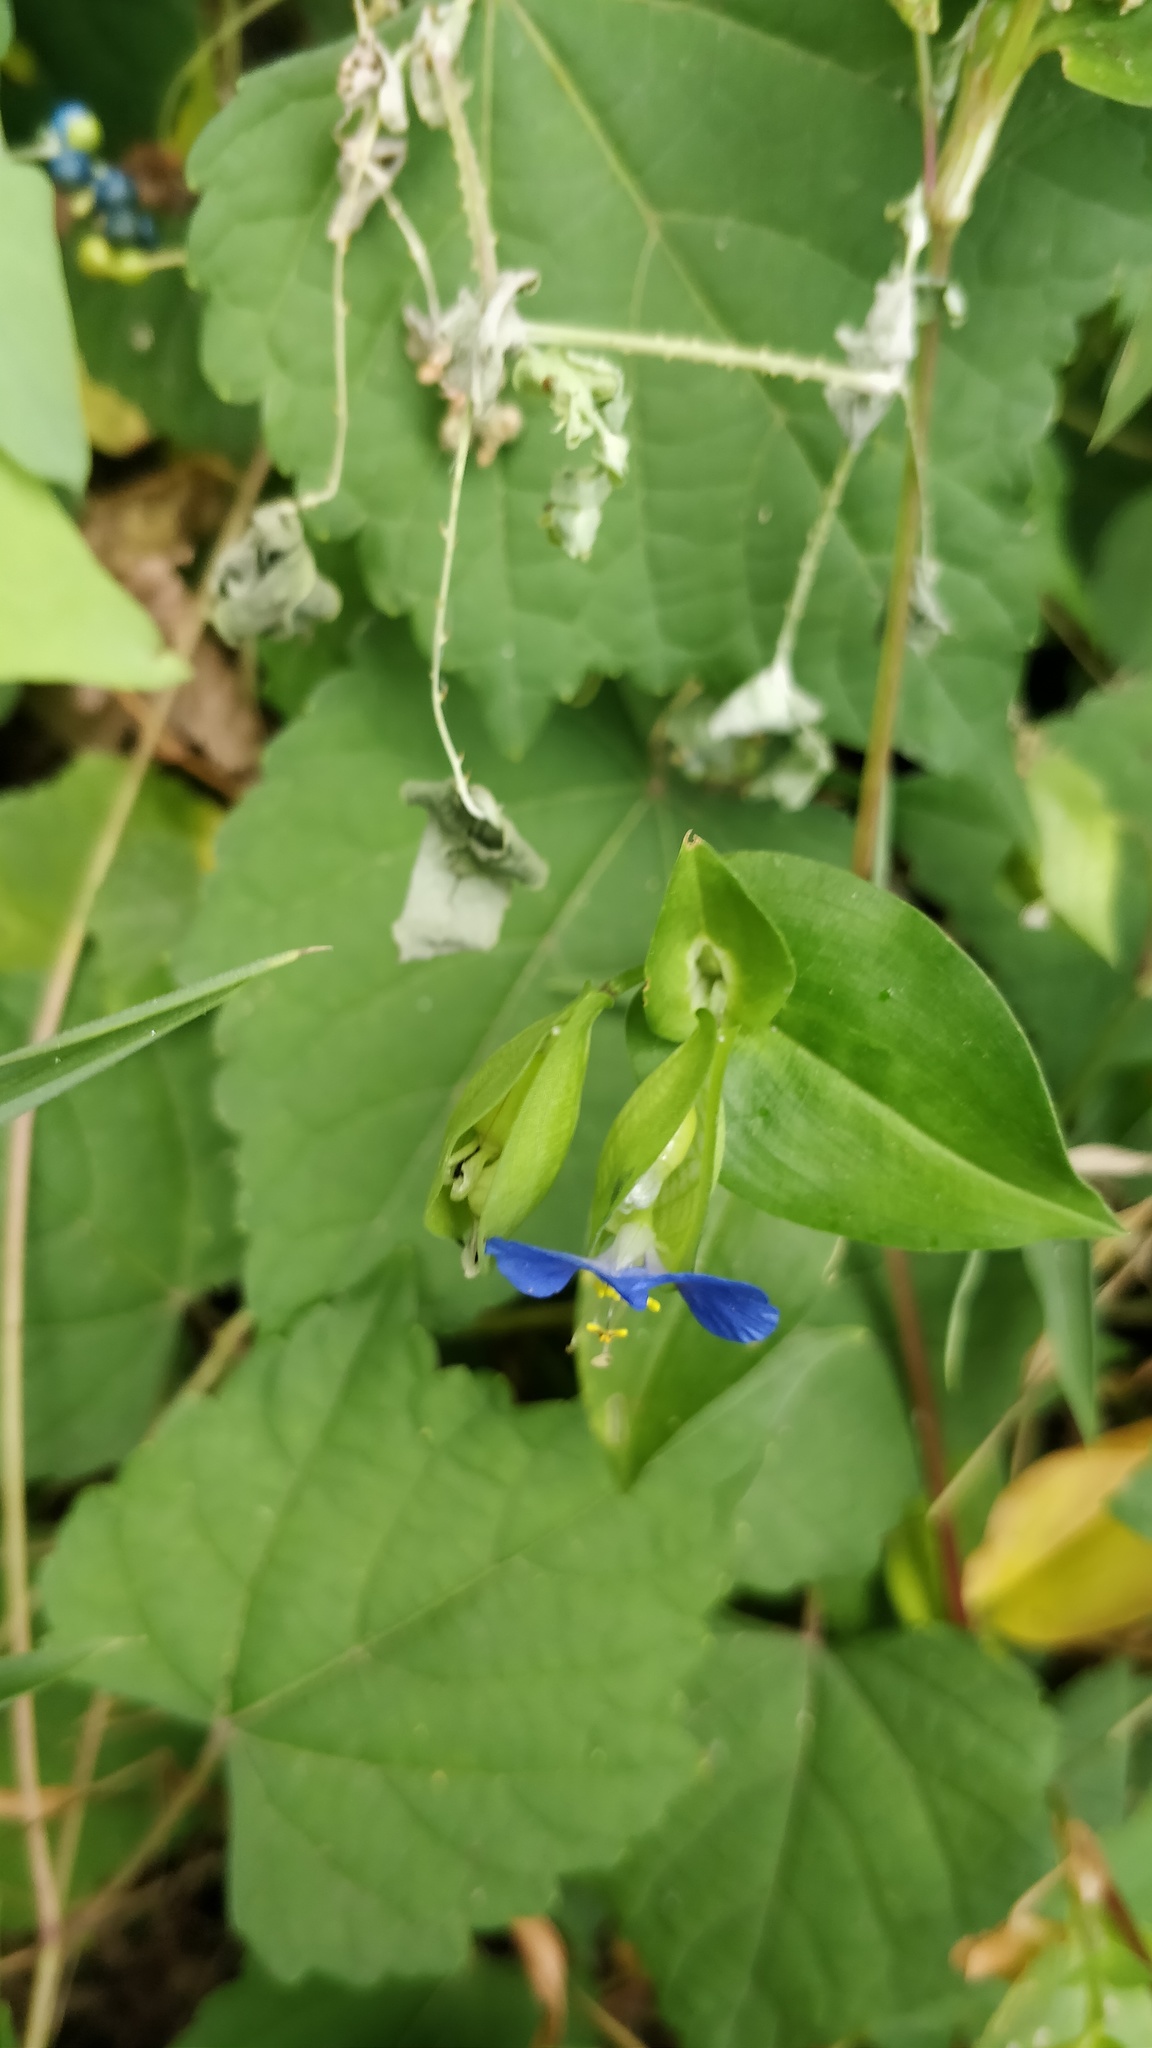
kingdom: Plantae
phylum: Tracheophyta
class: Liliopsida
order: Commelinales
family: Commelinaceae
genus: Commelina
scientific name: Commelina communis
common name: Asiatic dayflower
